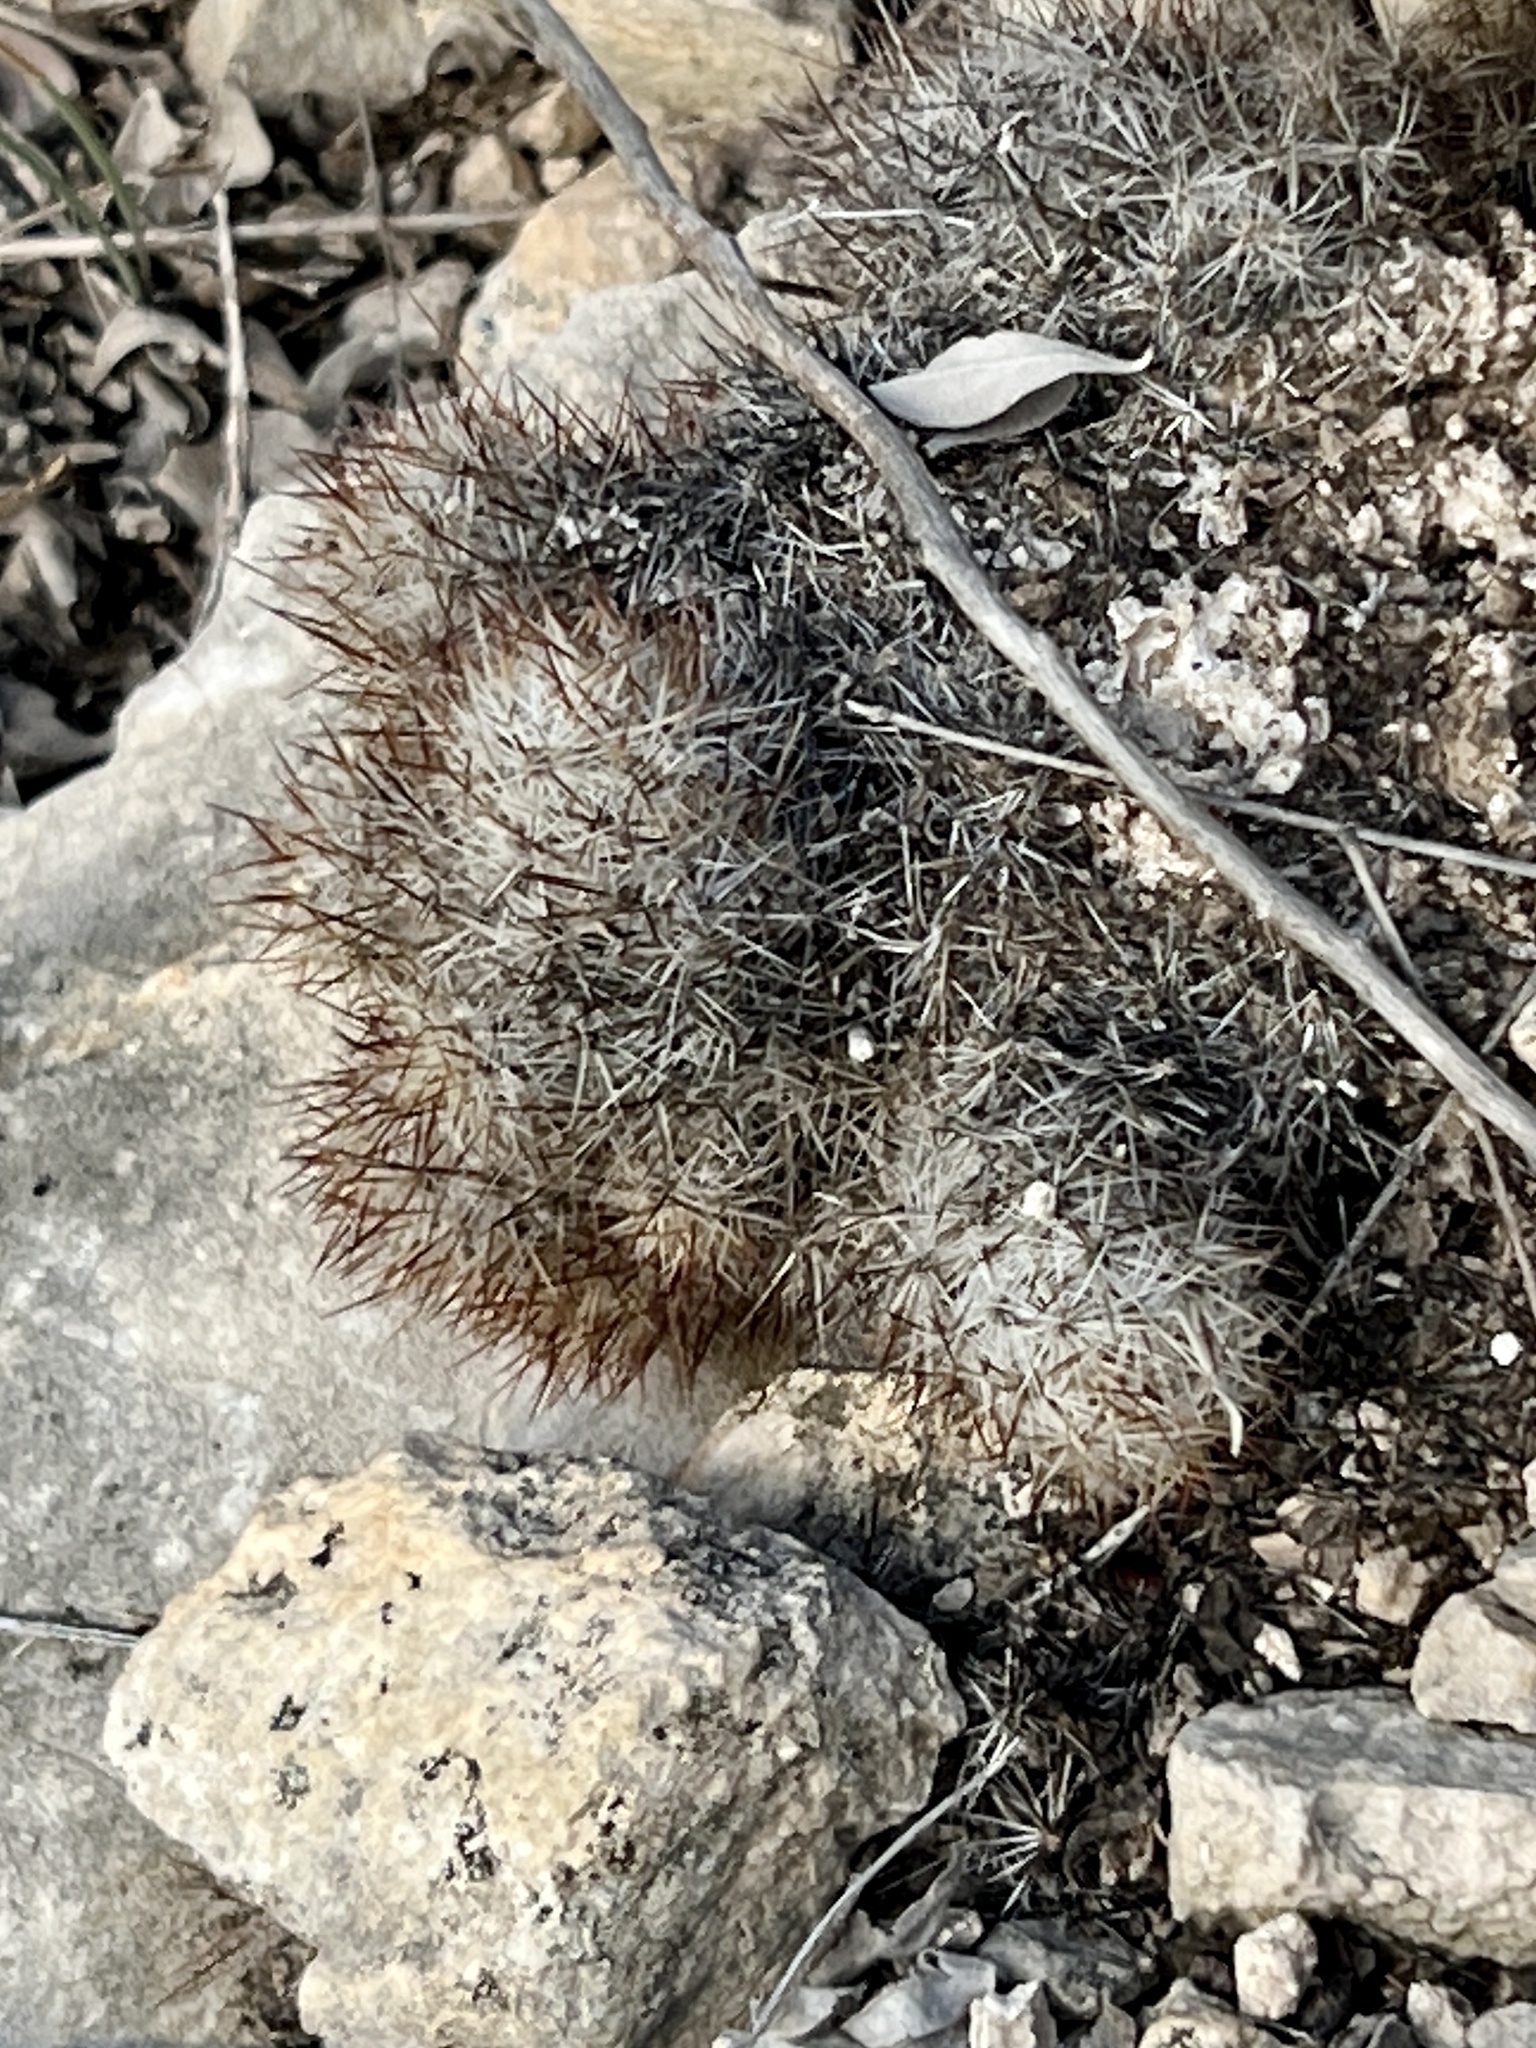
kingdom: Plantae
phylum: Tracheophyta
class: Magnoliopsida
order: Caryophyllales
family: Cactaceae
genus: Pelecyphora
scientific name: Pelecyphora emskoetteriana
